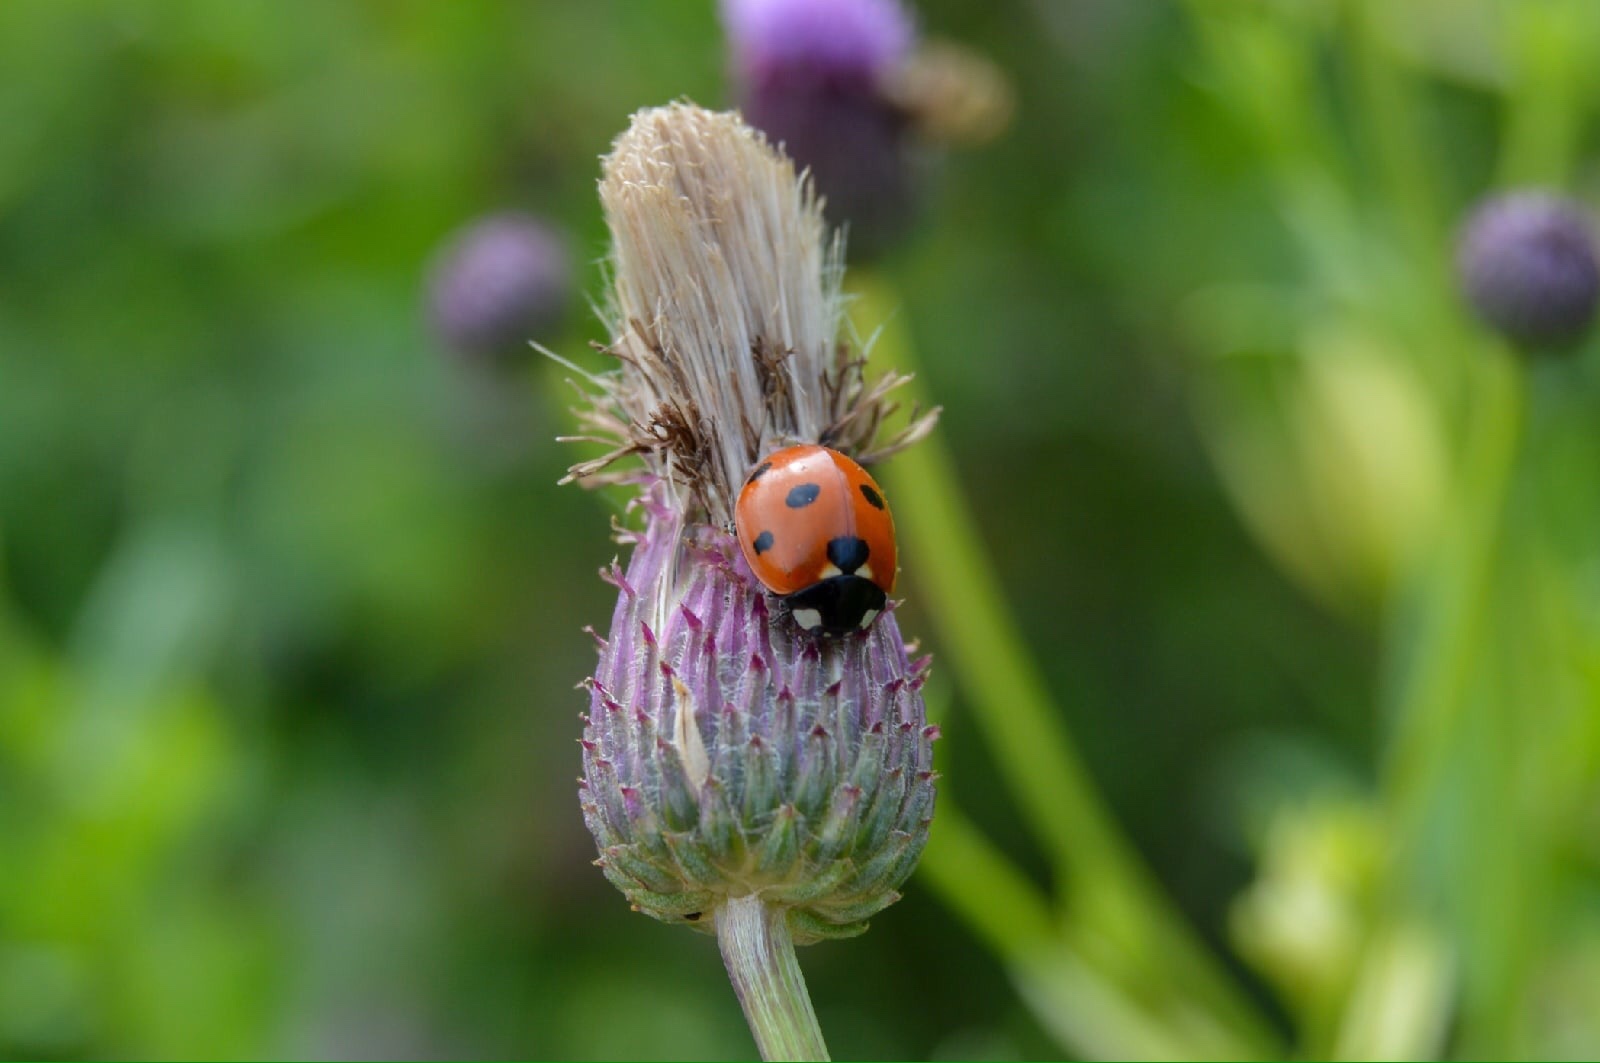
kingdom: Animalia
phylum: Arthropoda
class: Insecta
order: Coleoptera
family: Coccinellidae
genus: Coccinella
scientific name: Coccinella septempunctata
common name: Sevenspotted lady beetle
